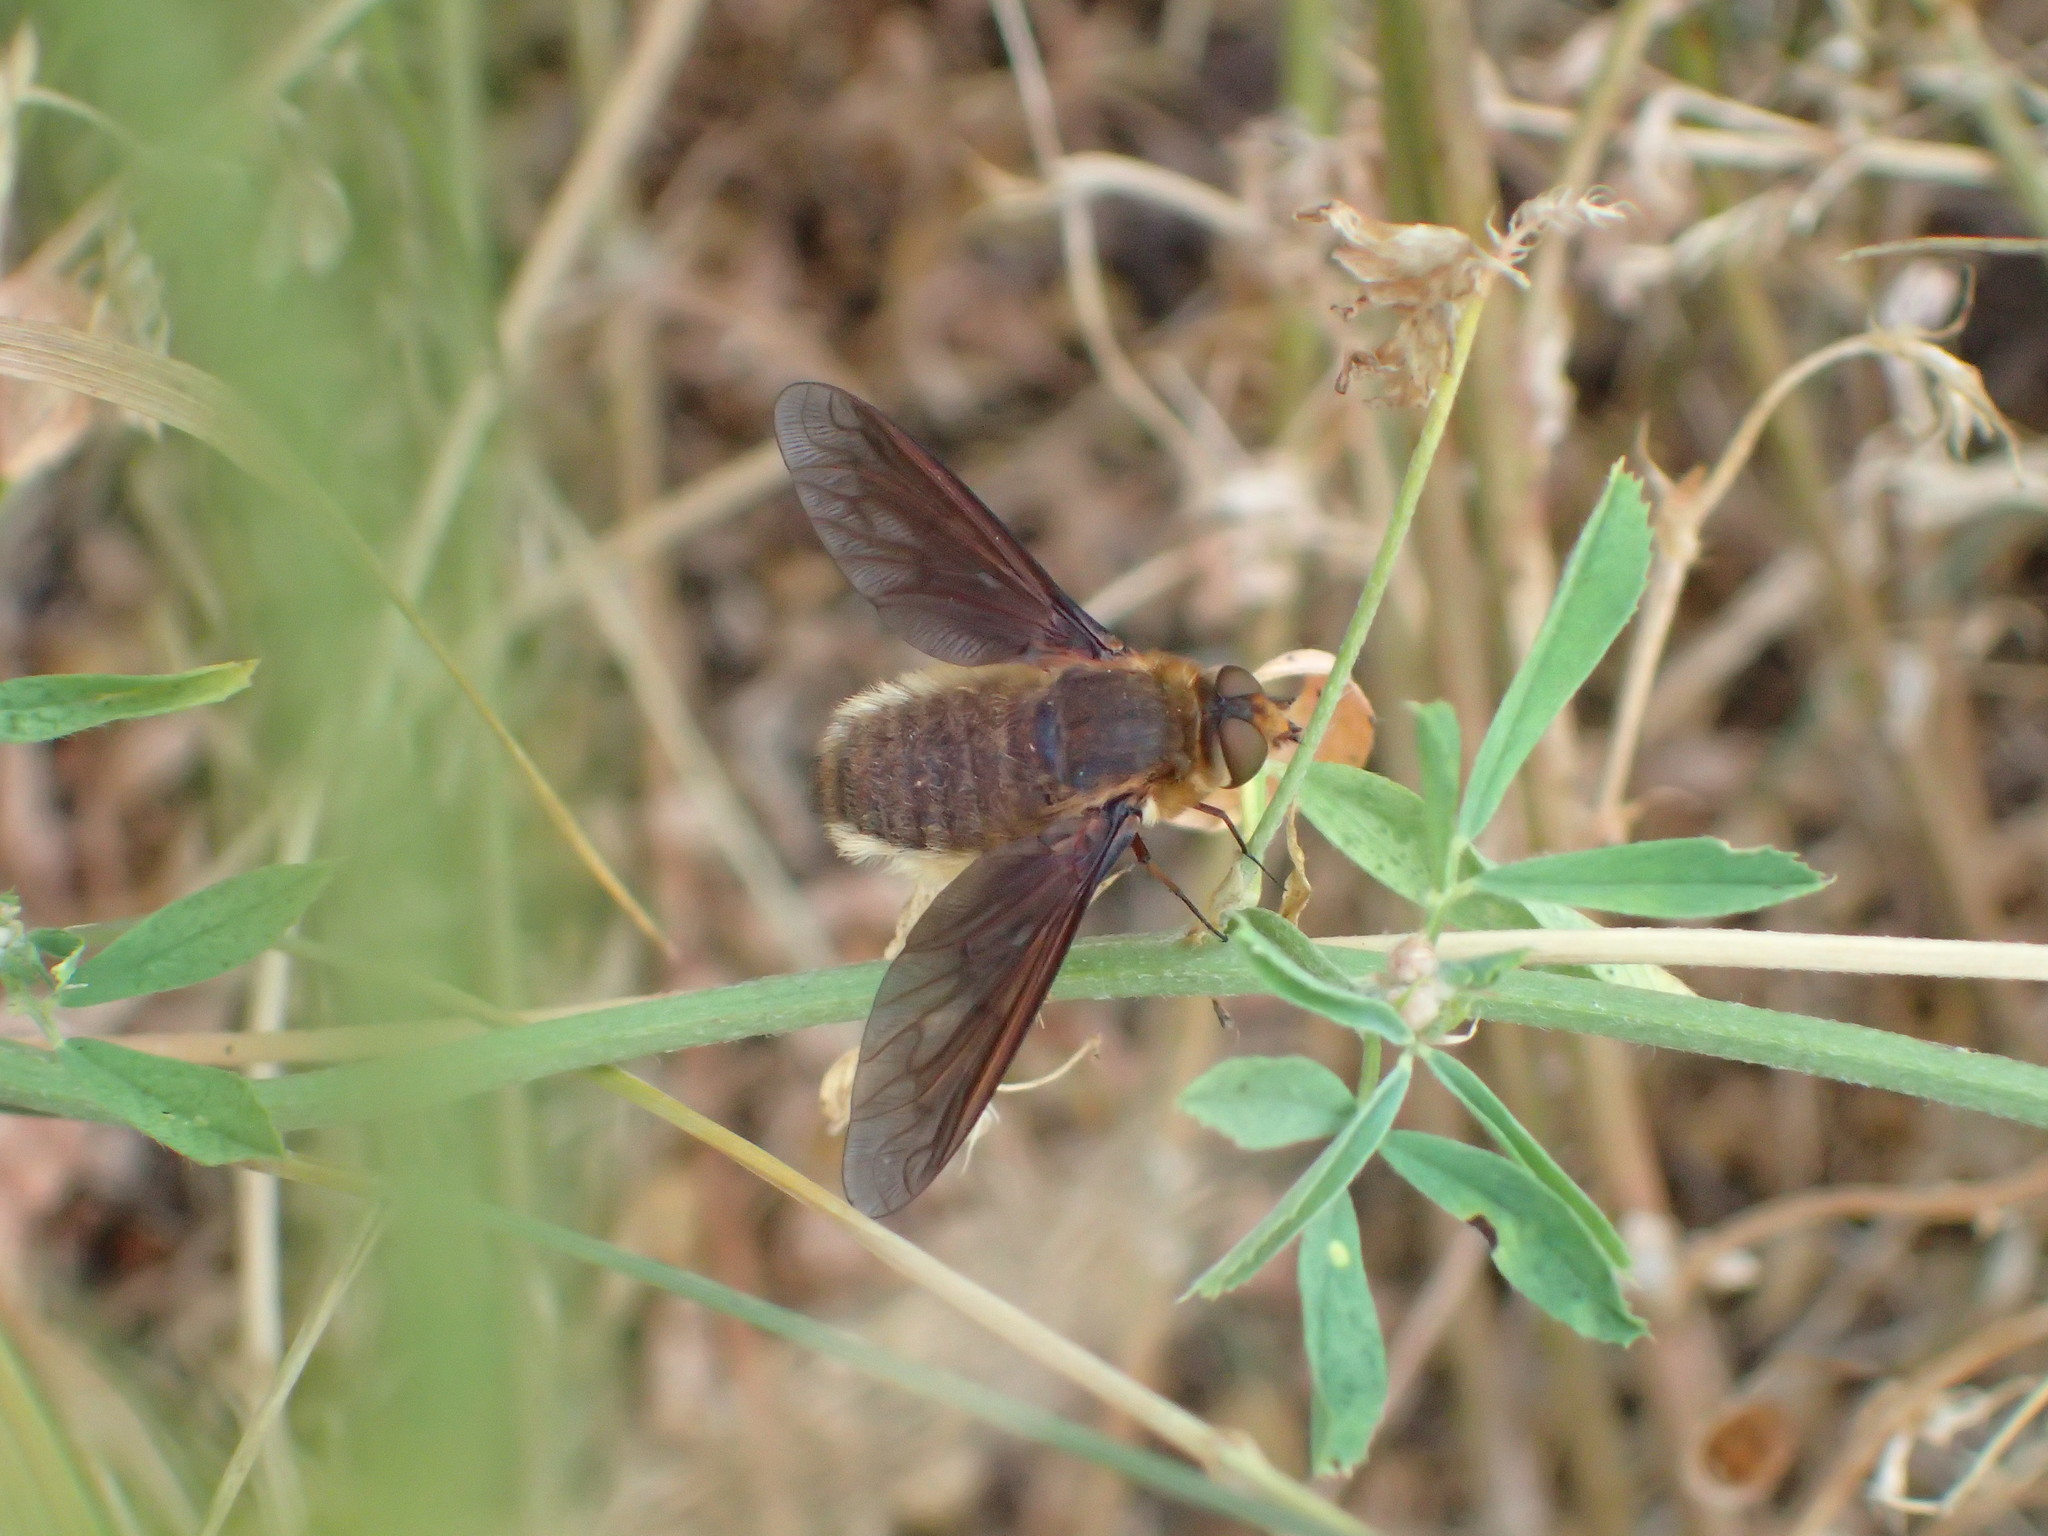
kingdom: Animalia
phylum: Arthropoda
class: Insecta
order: Diptera
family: Bombyliidae
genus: Poecilanthrax
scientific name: Poecilanthrax tegminipennis
